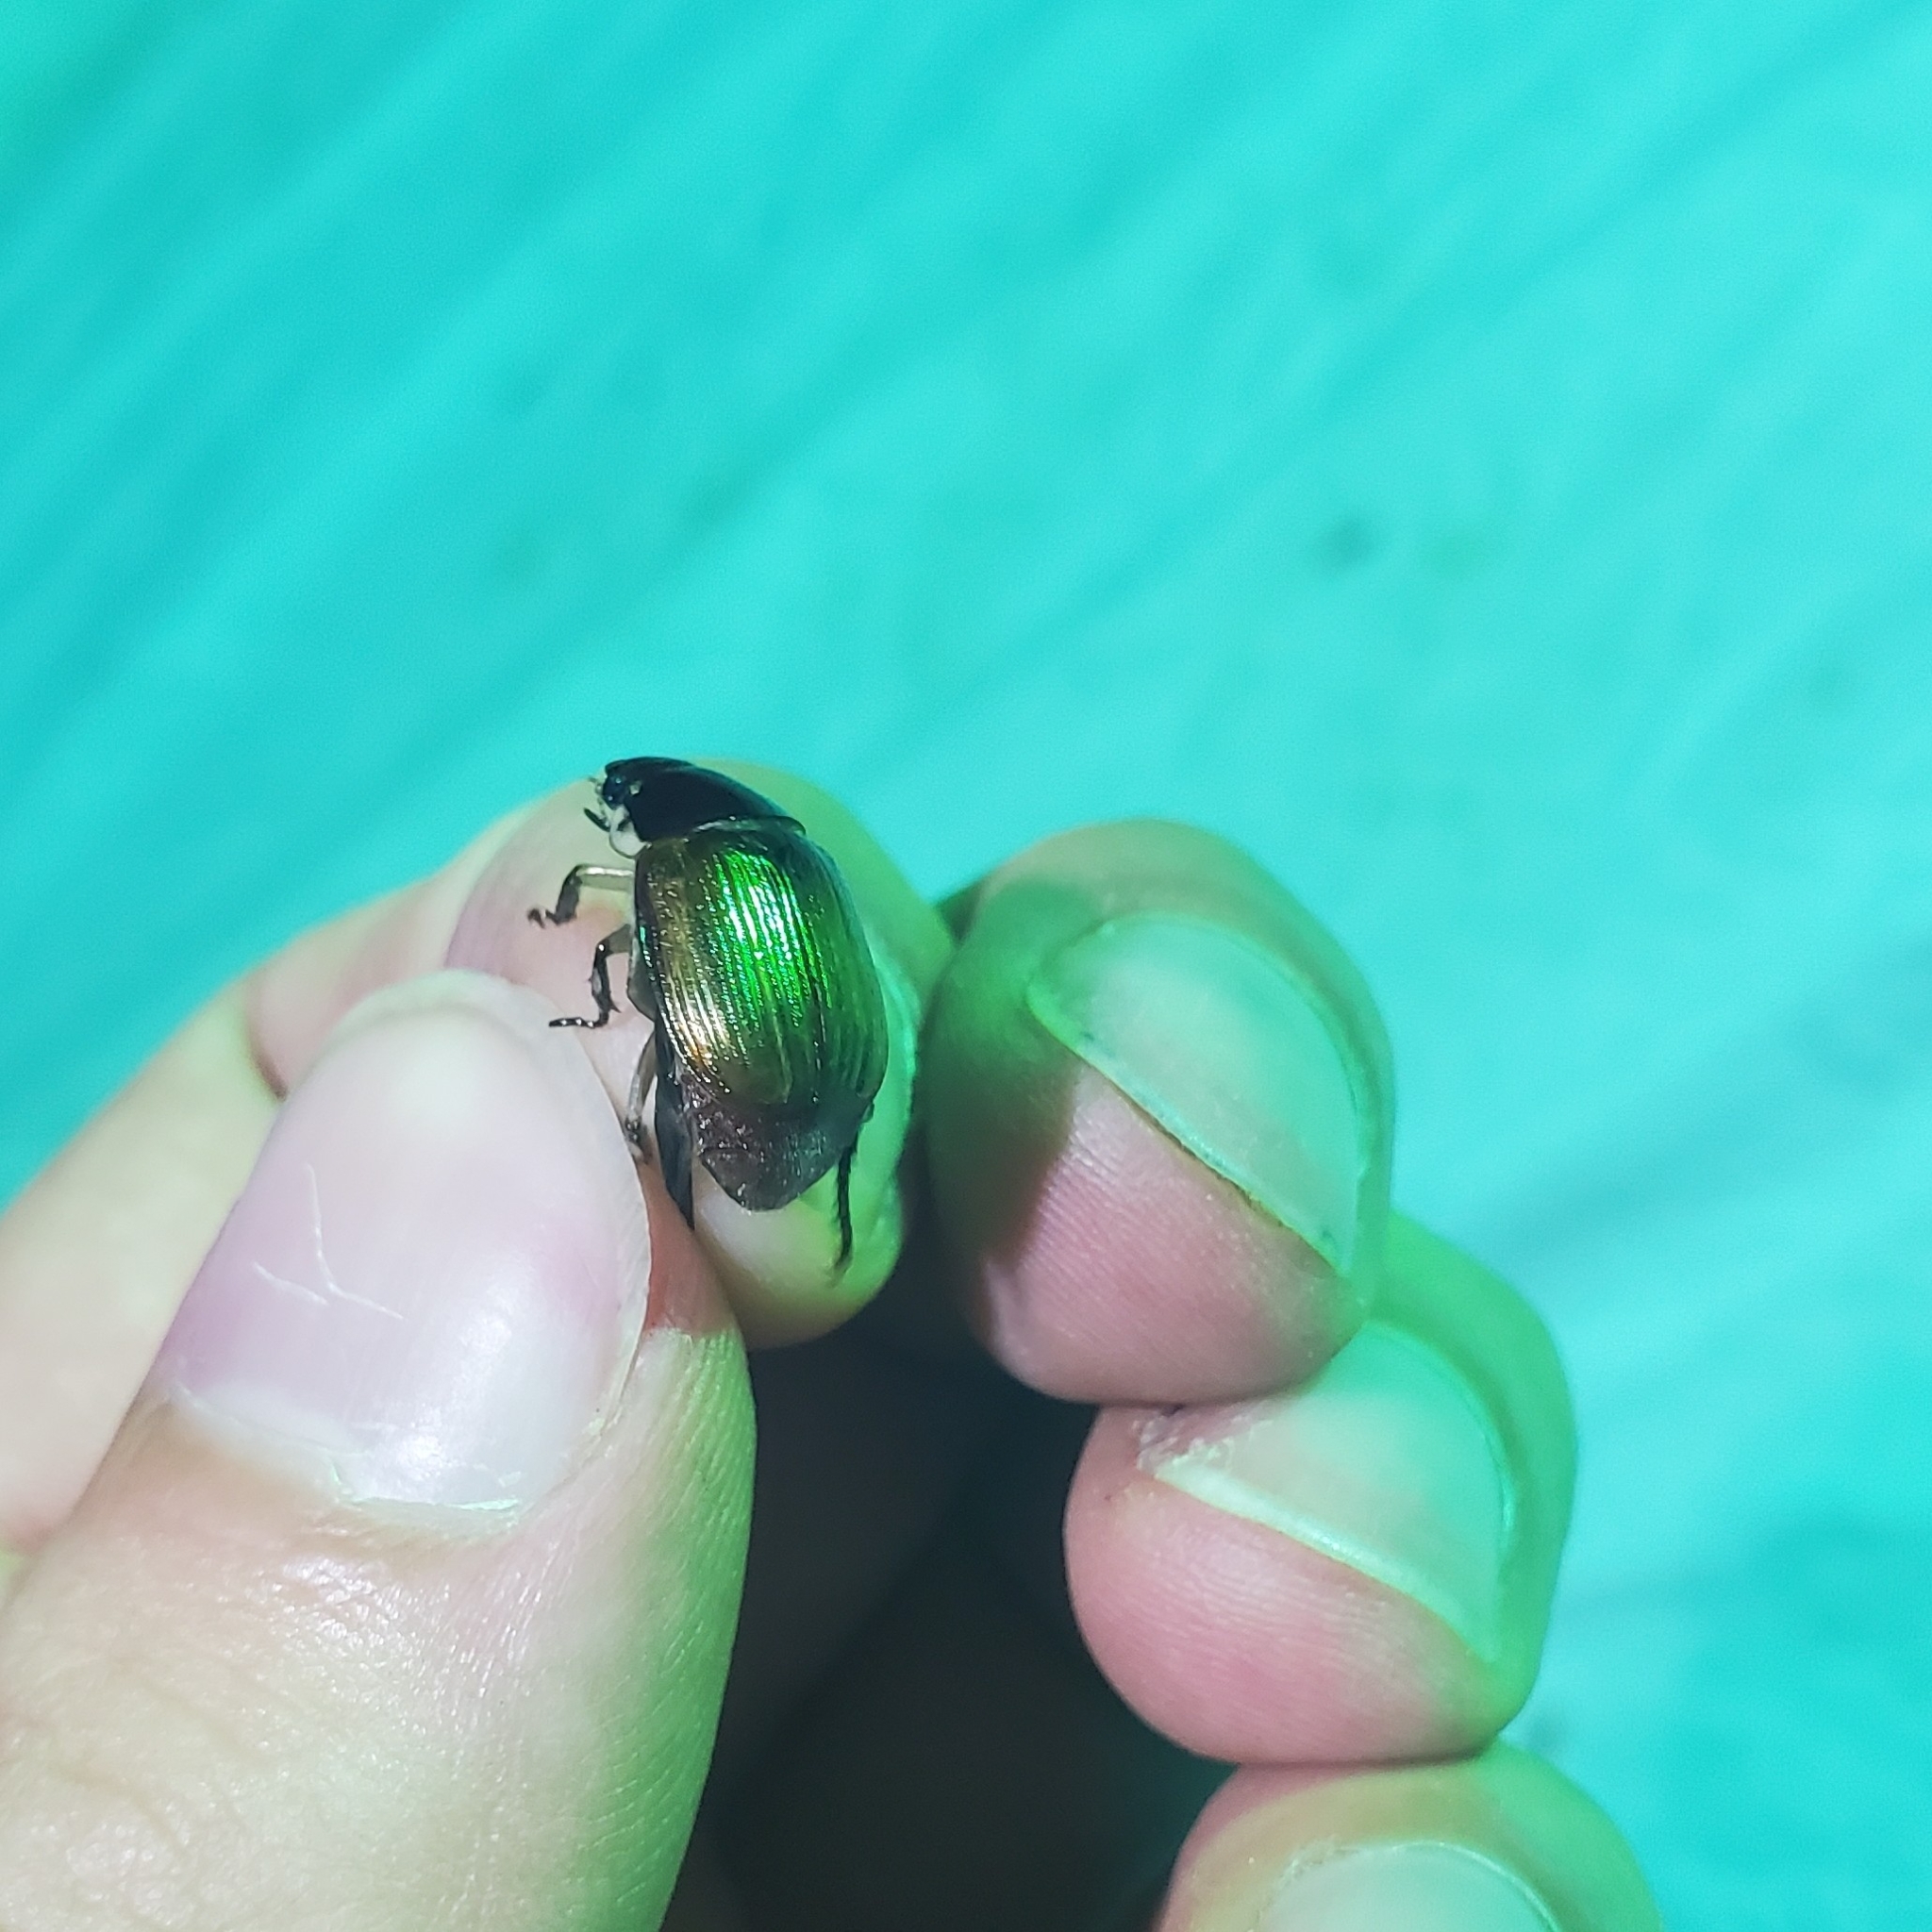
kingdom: Animalia
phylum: Arthropoda
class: Insecta
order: Coleoptera
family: Scarabaeidae
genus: Callistethus
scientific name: Callistethus marginatus
